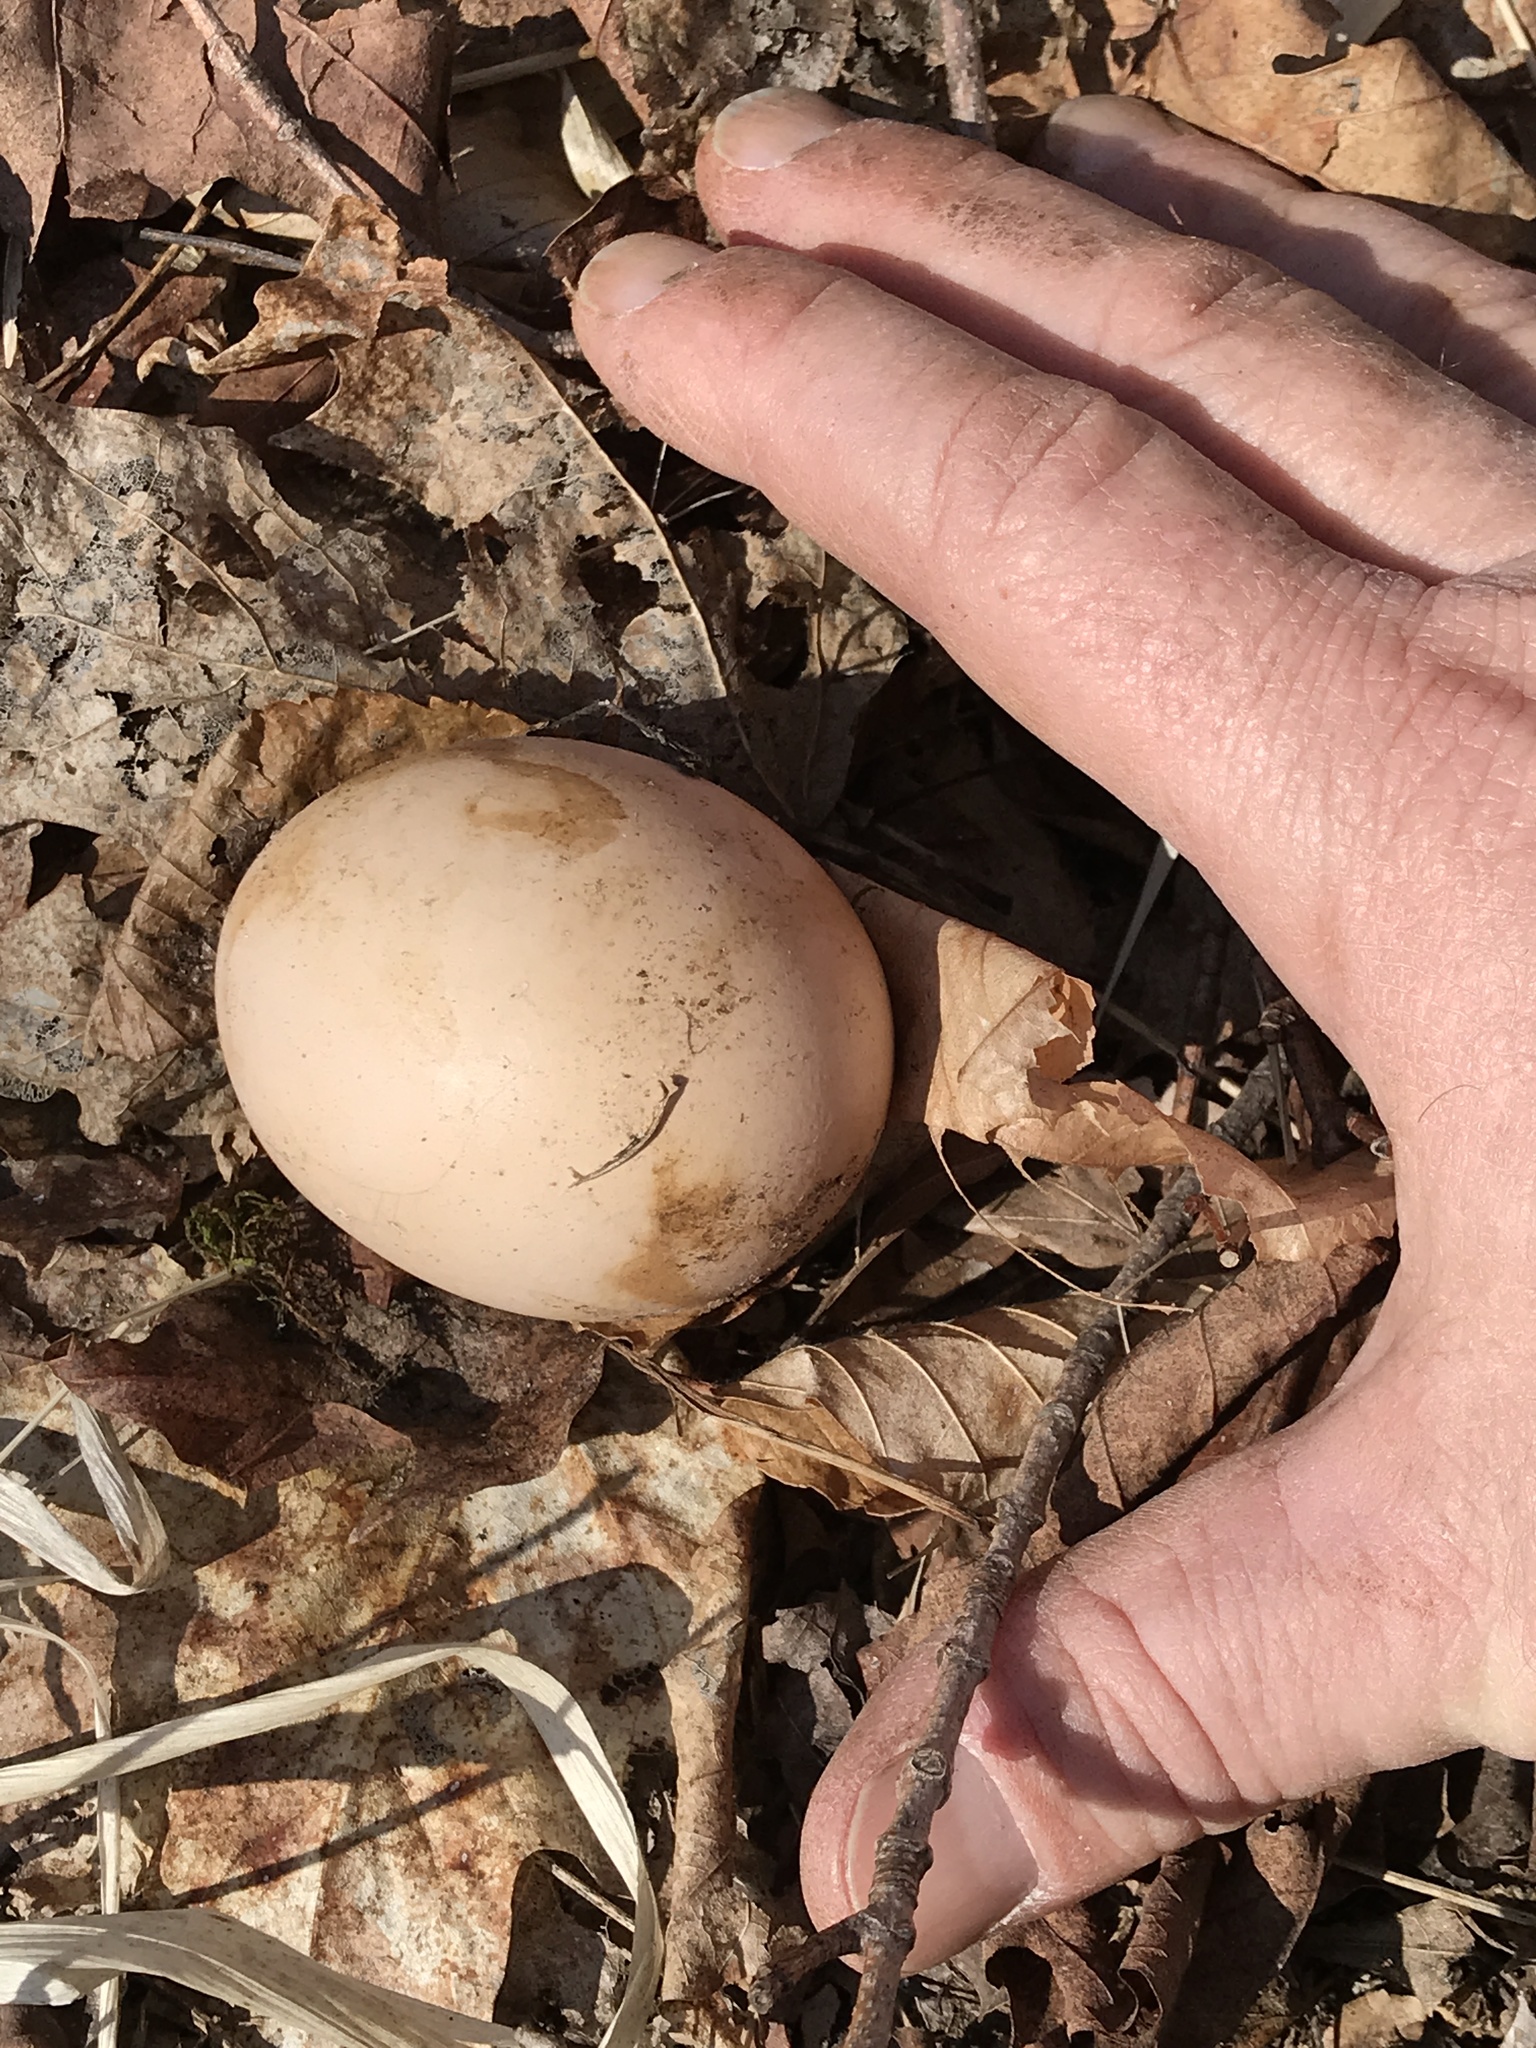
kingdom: Animalia
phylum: Chordata
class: Aves
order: Galliformes
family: Phasianidae
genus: Meleagris
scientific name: Meleagris gallopavo
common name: Wild turkey
